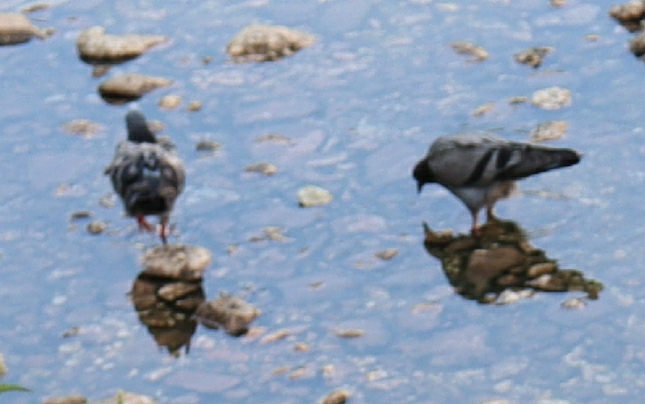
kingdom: Animalia
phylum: Chordata
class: Aves
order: Columbiformes
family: Columbidae
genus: Columba
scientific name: Columba livia
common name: Rock pigeon
